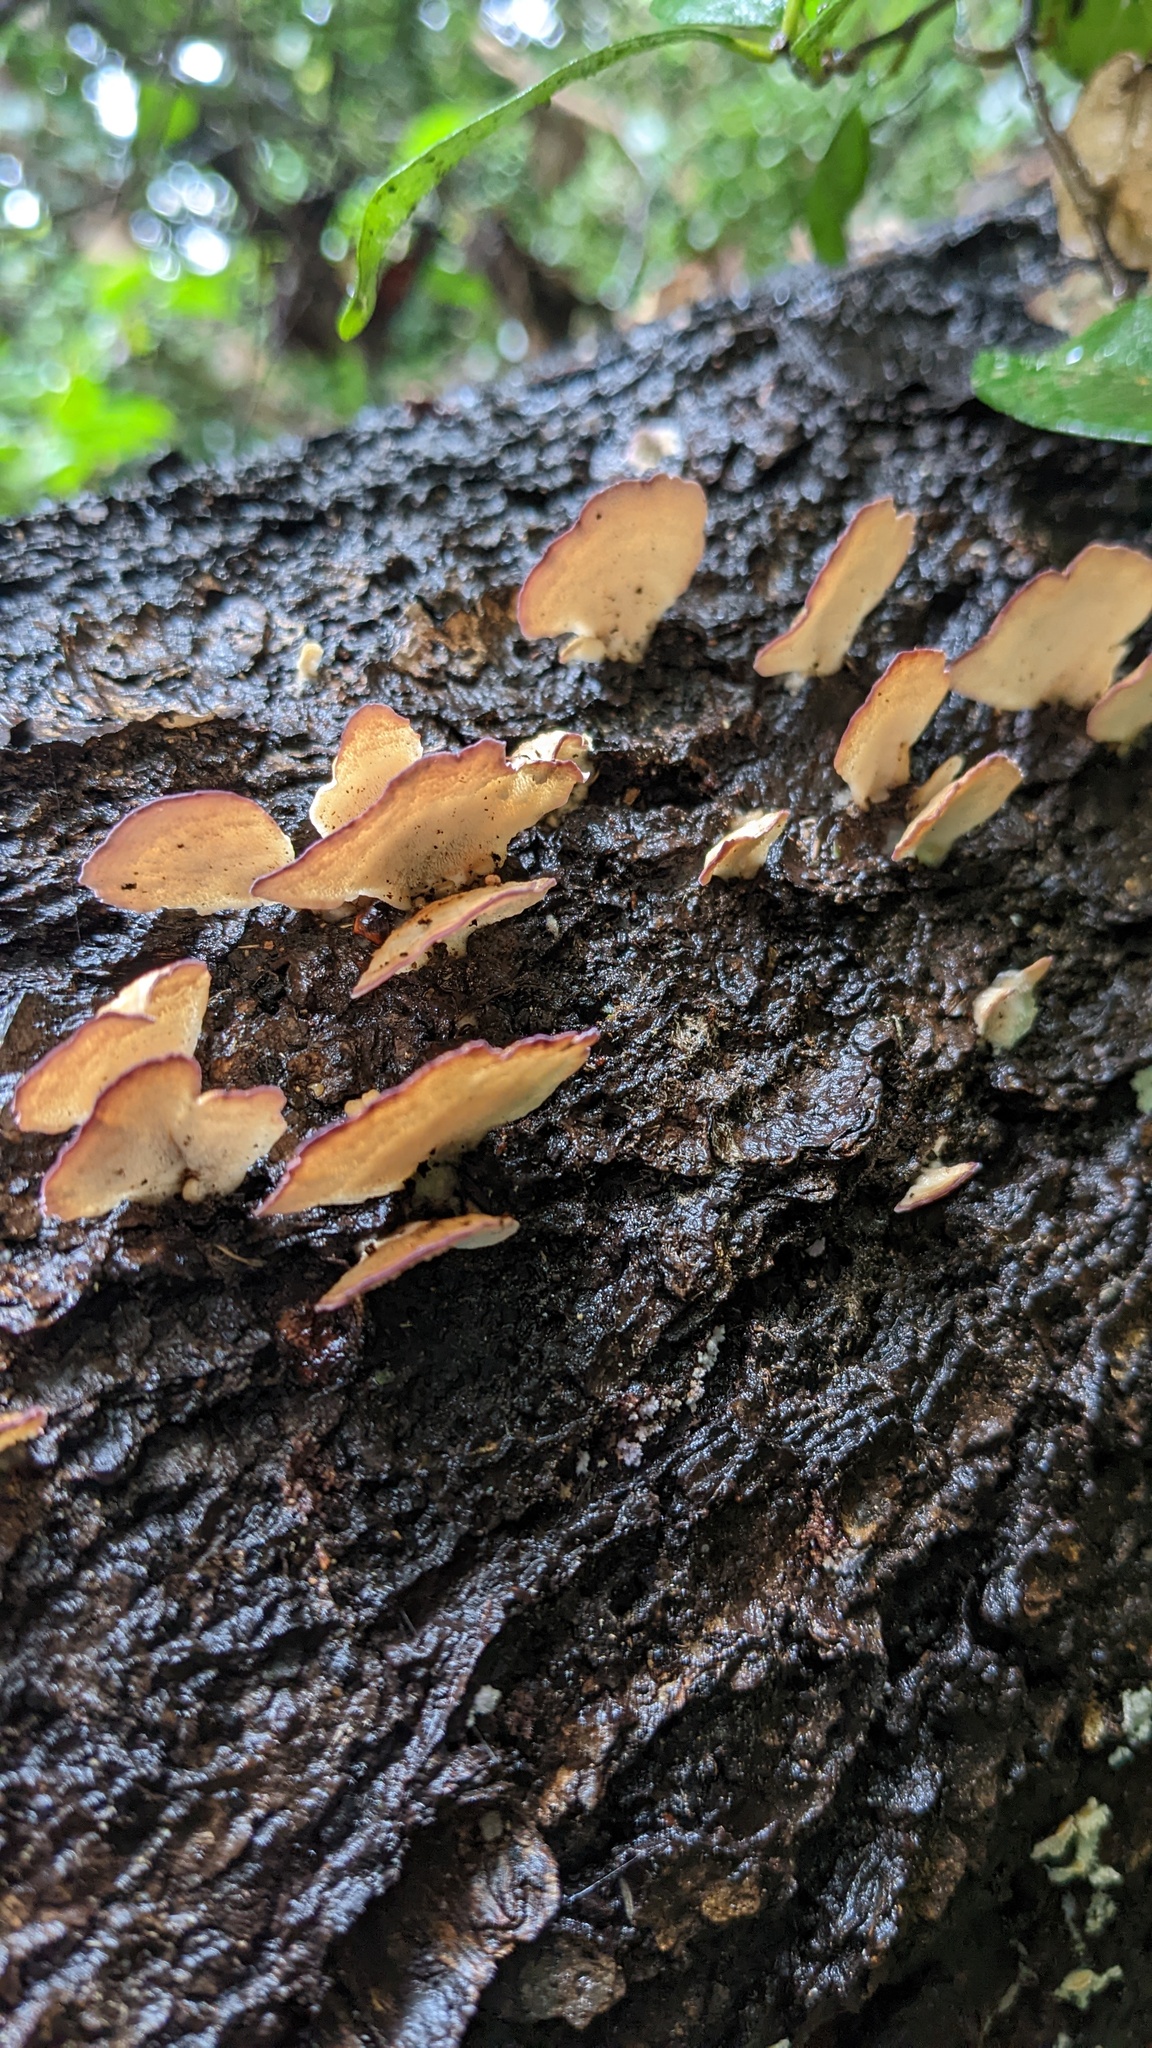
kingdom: Fungi
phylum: Basidiomycota
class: Agaricomycetes
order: Hymenochaetales
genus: Trichaptum
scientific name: Trichaptum biforme
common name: Violet-toothed polypore
